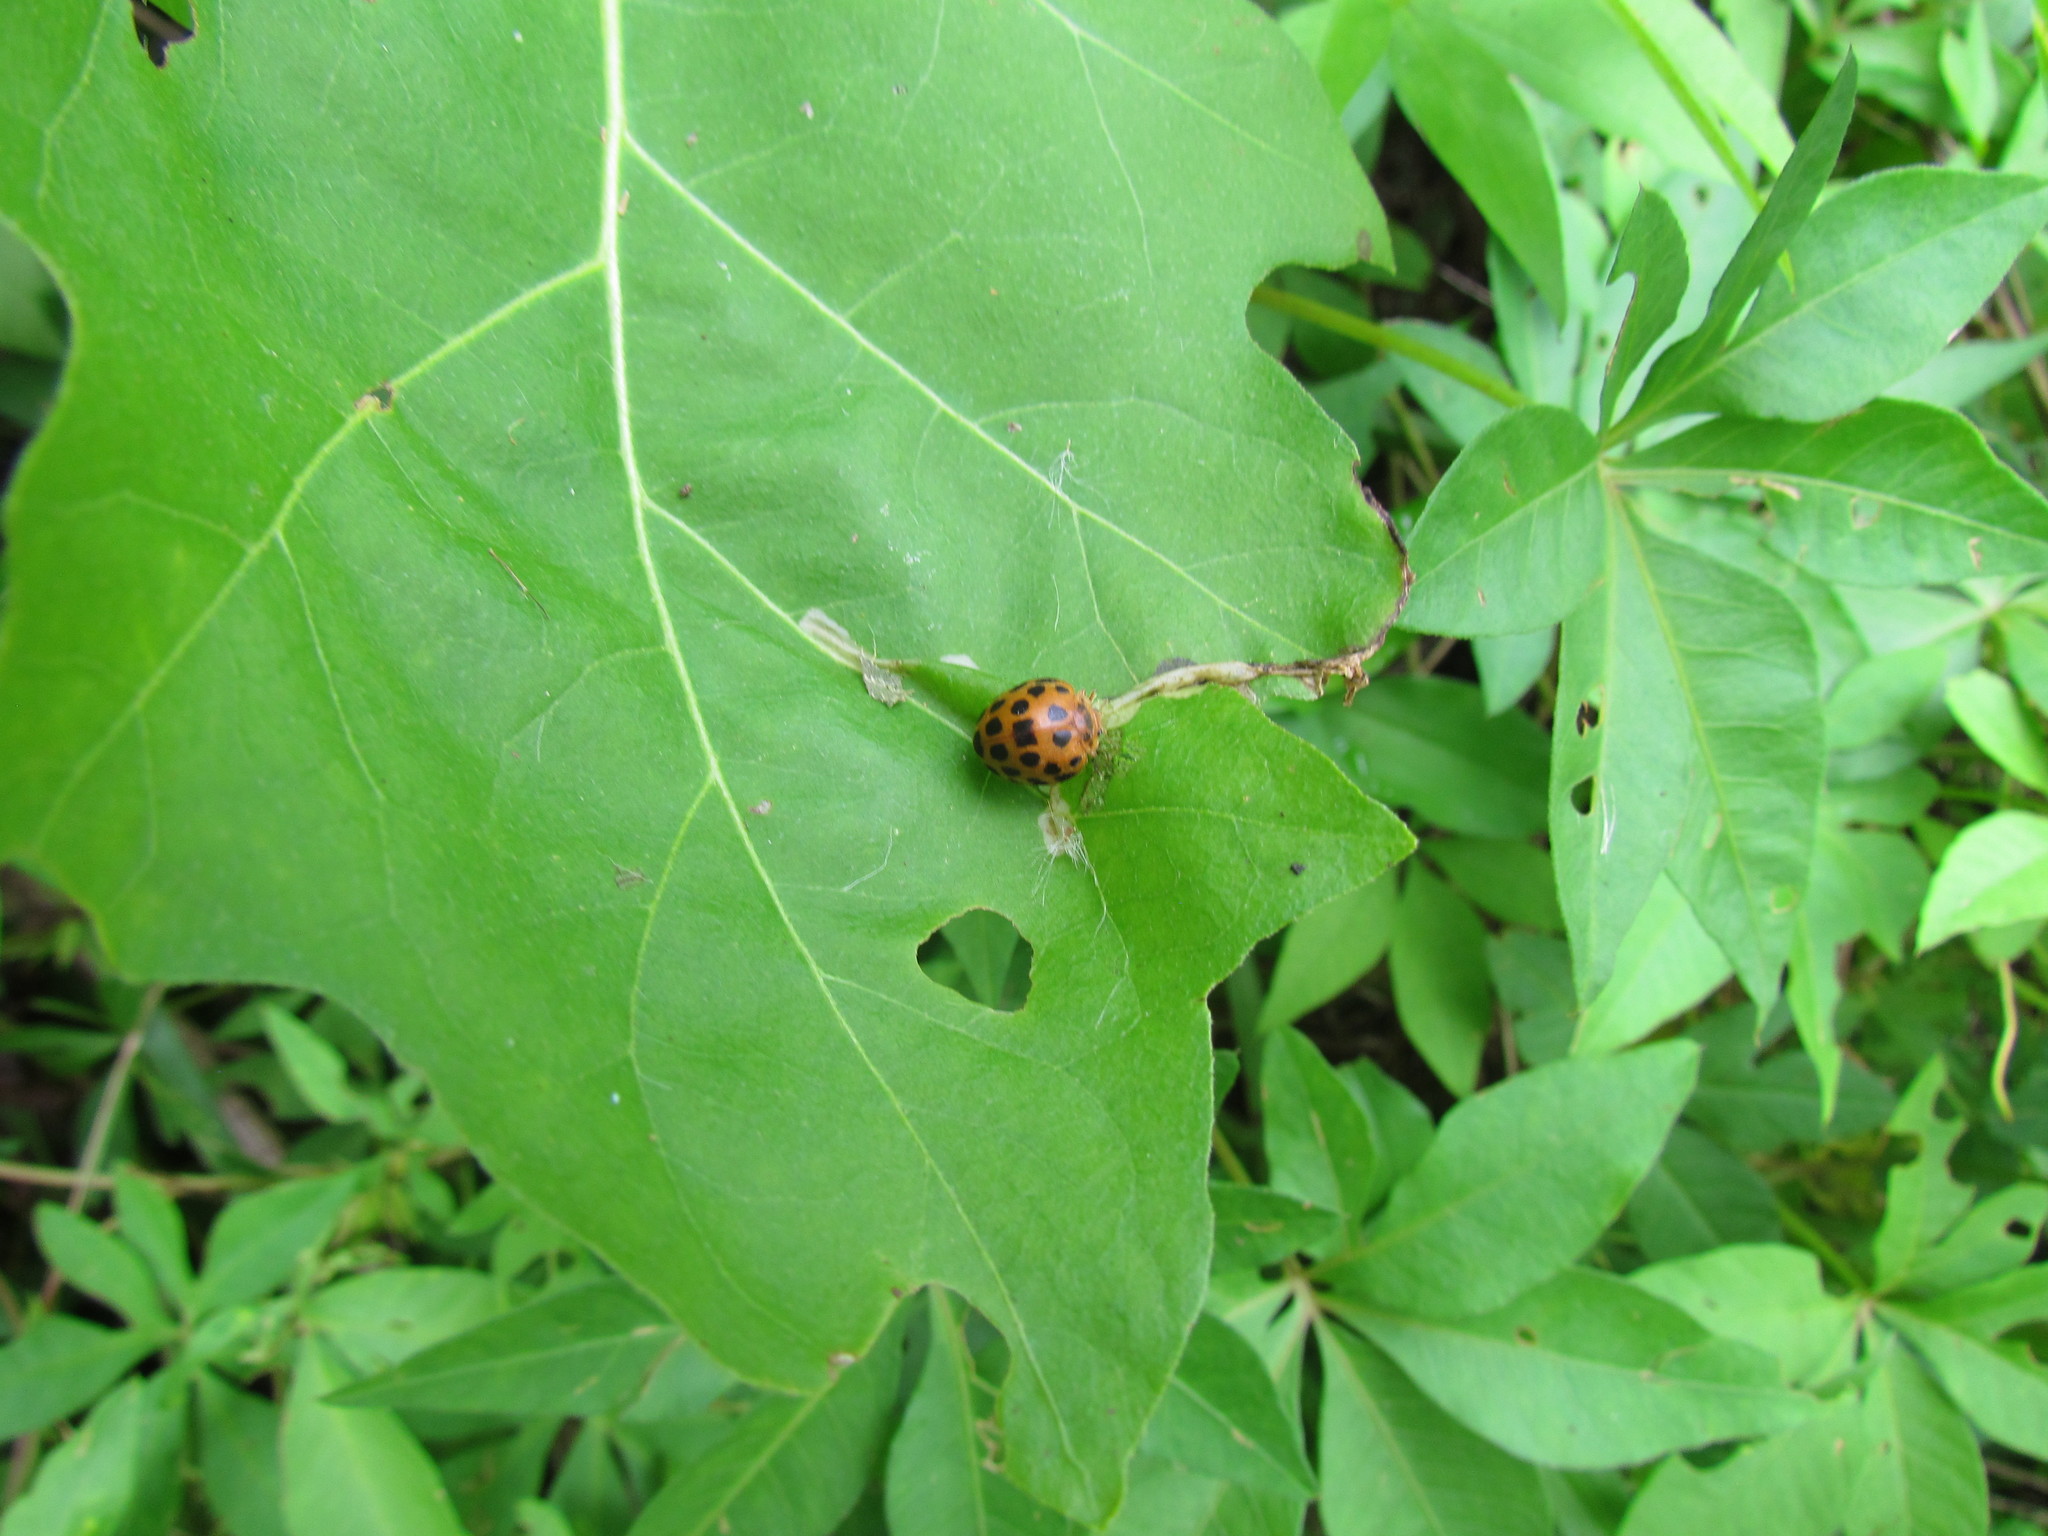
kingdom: Animalia
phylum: Arthropoda
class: Insecta
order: Coleoptera
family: Coccinellidae
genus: Henosepilachna
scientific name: Henosepilachna vigintioctopunctata
